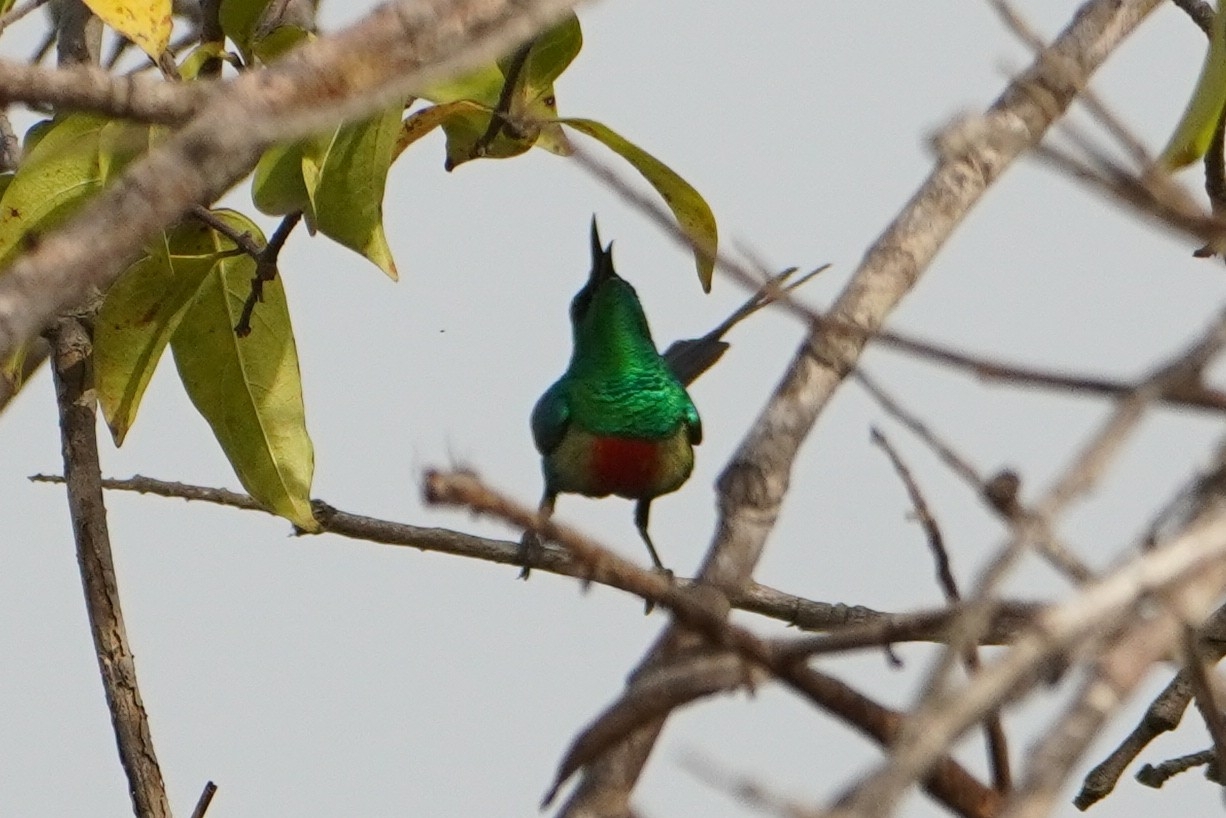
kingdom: Animalia
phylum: Chordata
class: Aves
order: Passeriformes
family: Nectariniidae
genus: Cinnyris
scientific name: Cinnyris pulchellus
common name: Beautiful sunbird
